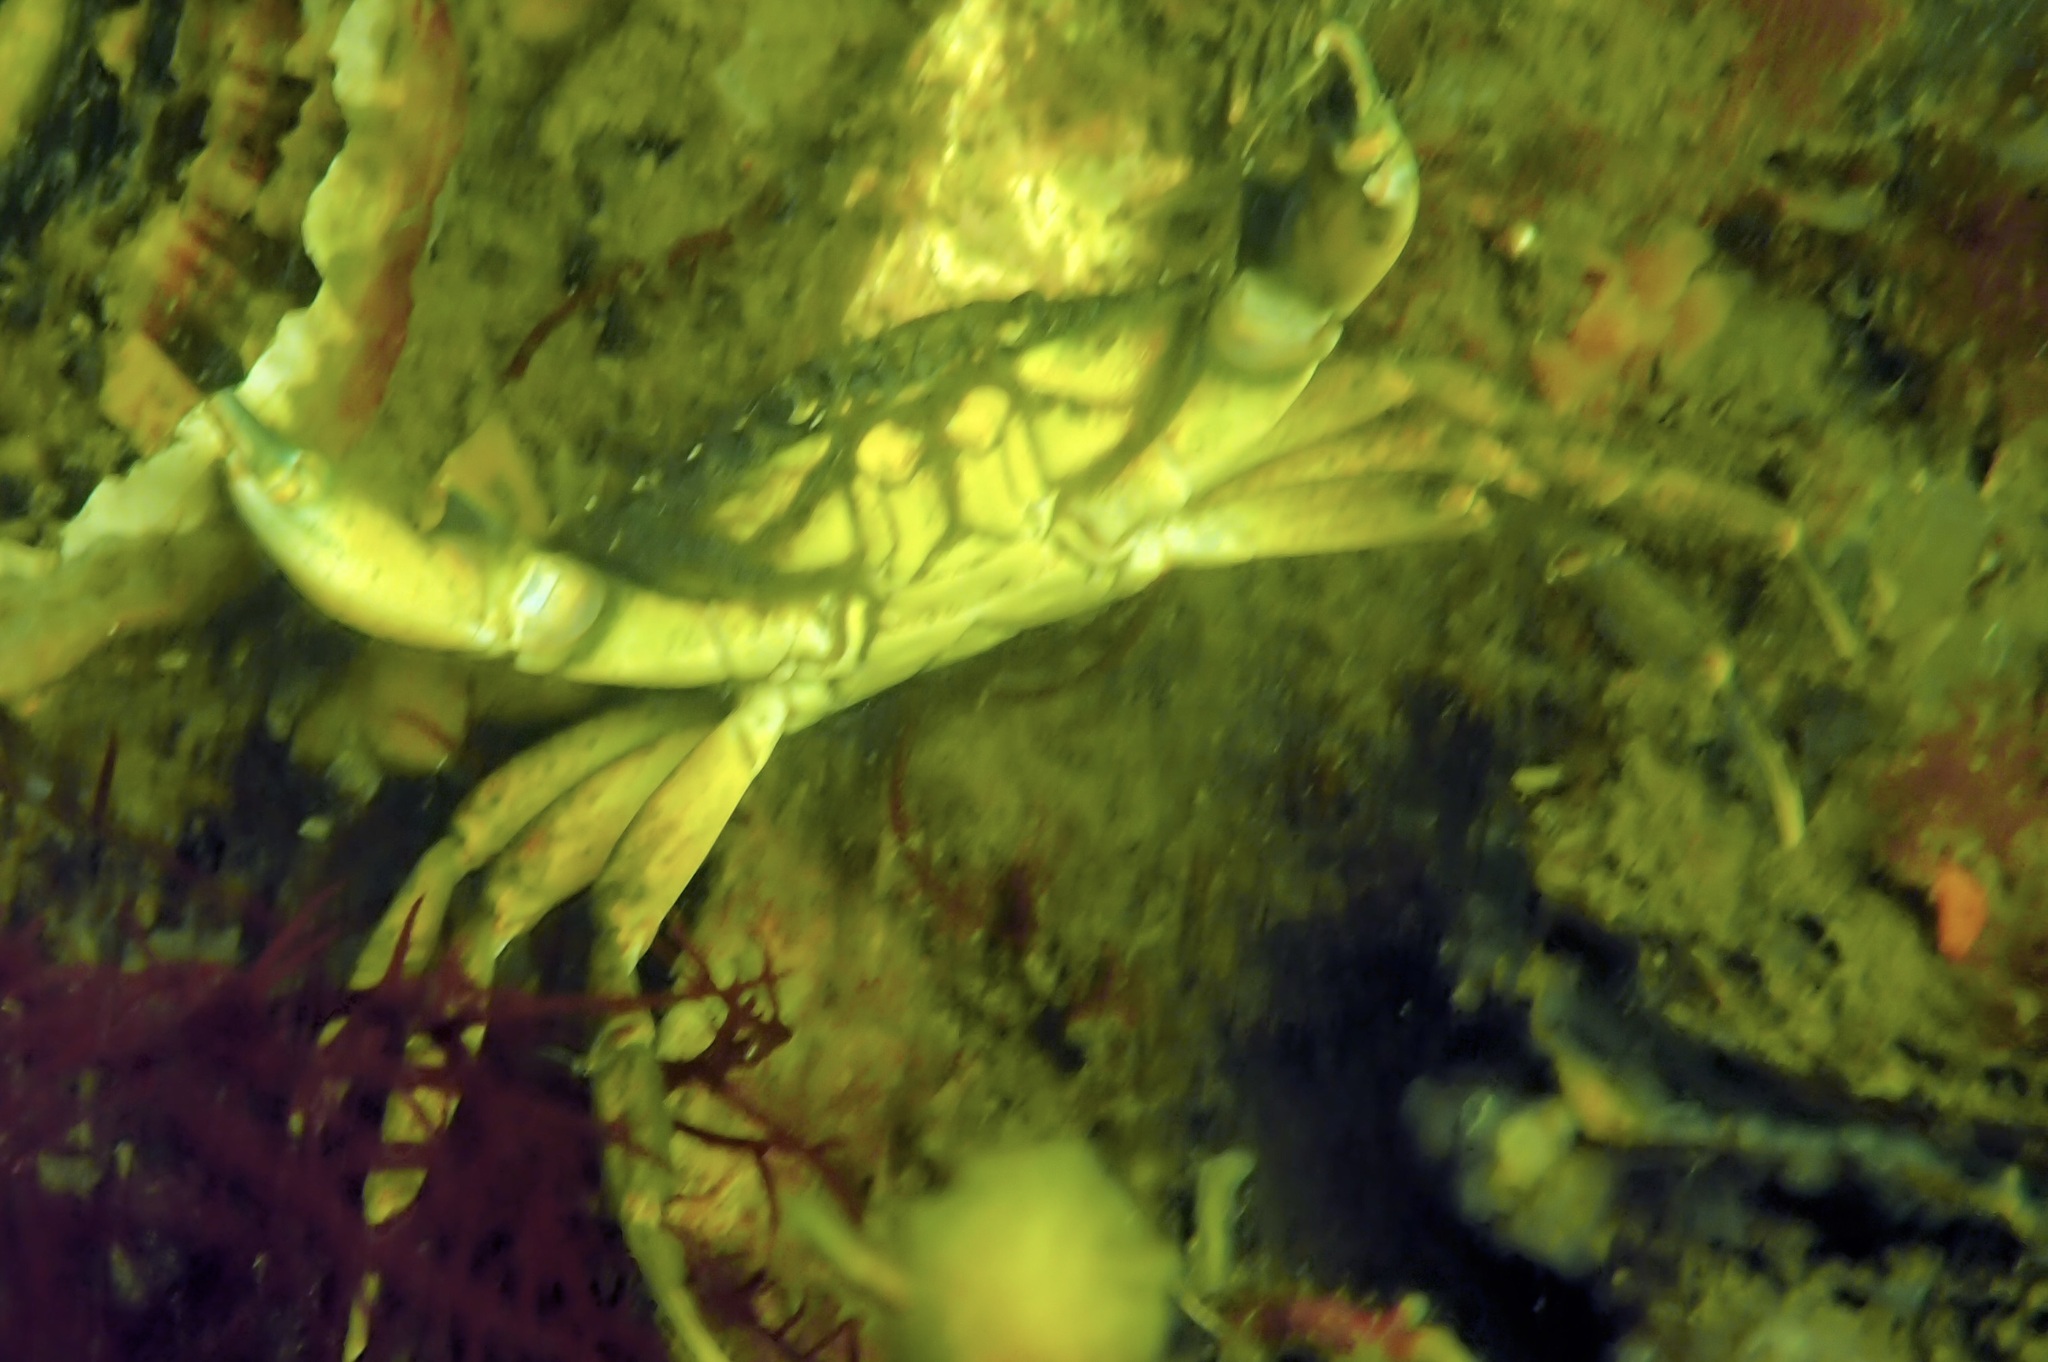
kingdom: Animalia
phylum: Arthropoda
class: Malacostraca
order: Decapoda
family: Carcinidae
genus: Carcinus
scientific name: Carcinus maenas
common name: European green crab
